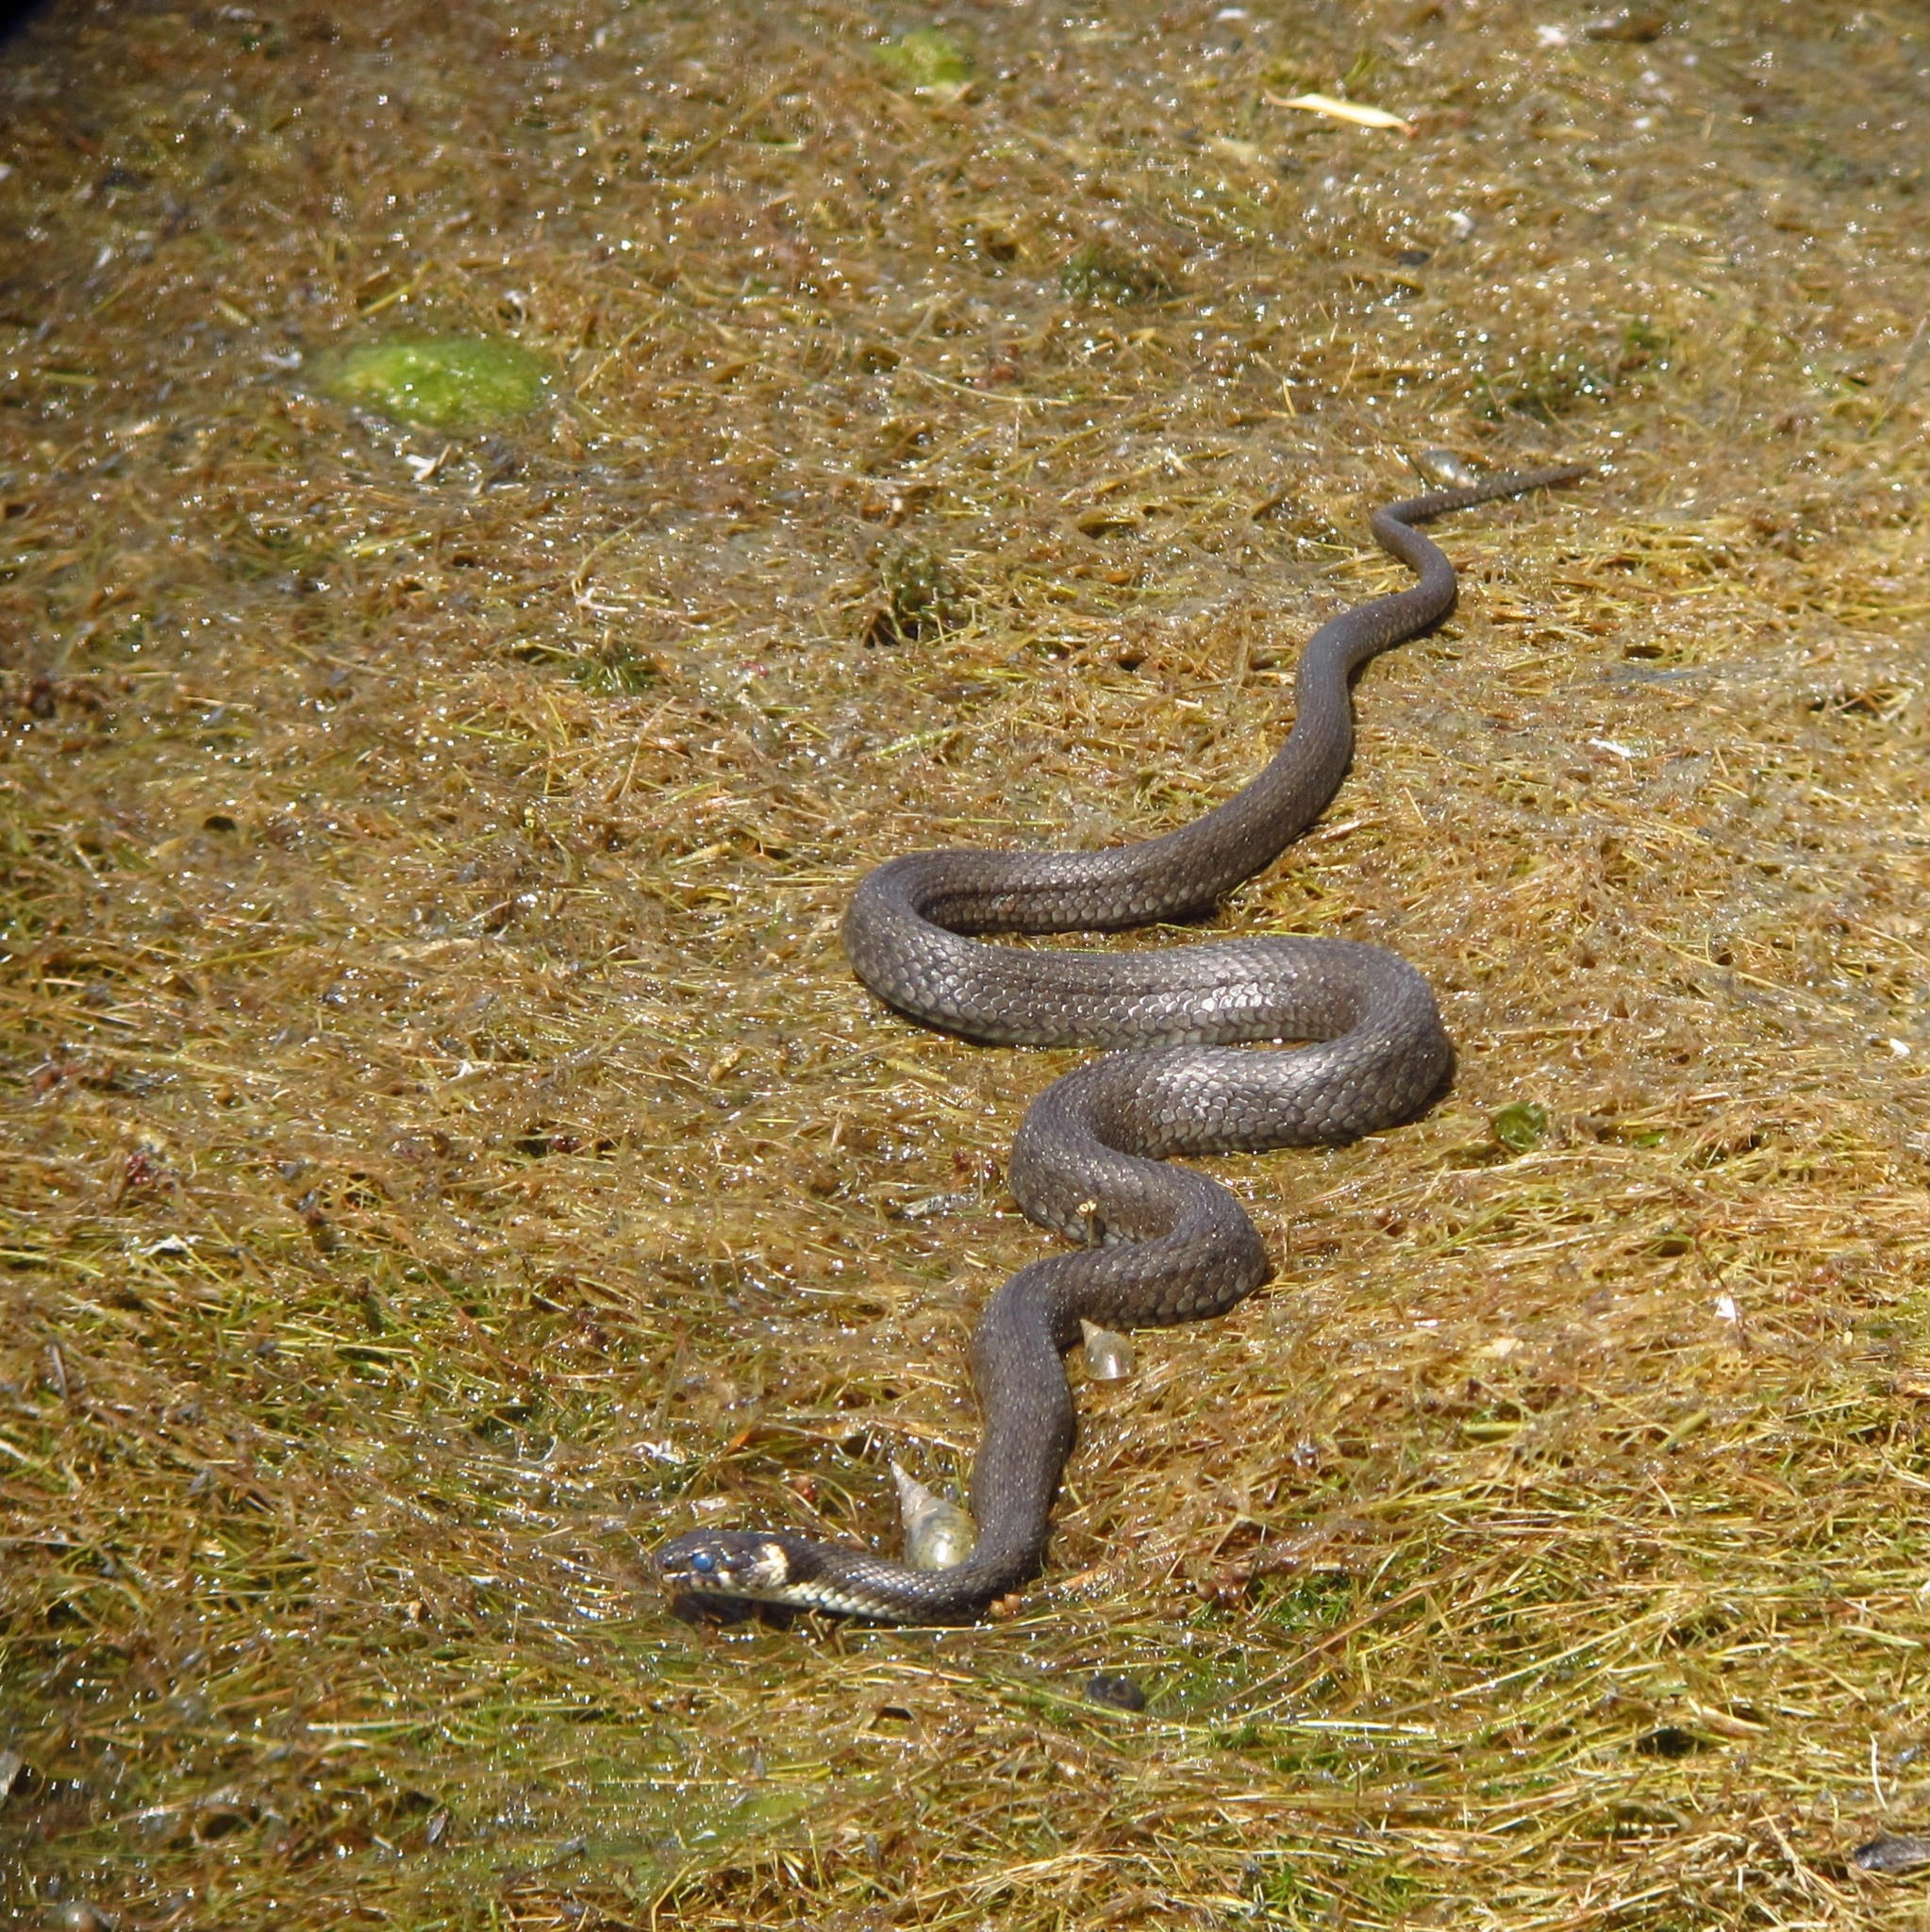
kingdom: Animalia
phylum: Chordata
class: Squamata
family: Colubridae
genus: Natrix
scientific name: Natrix natrix
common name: Grass snake
